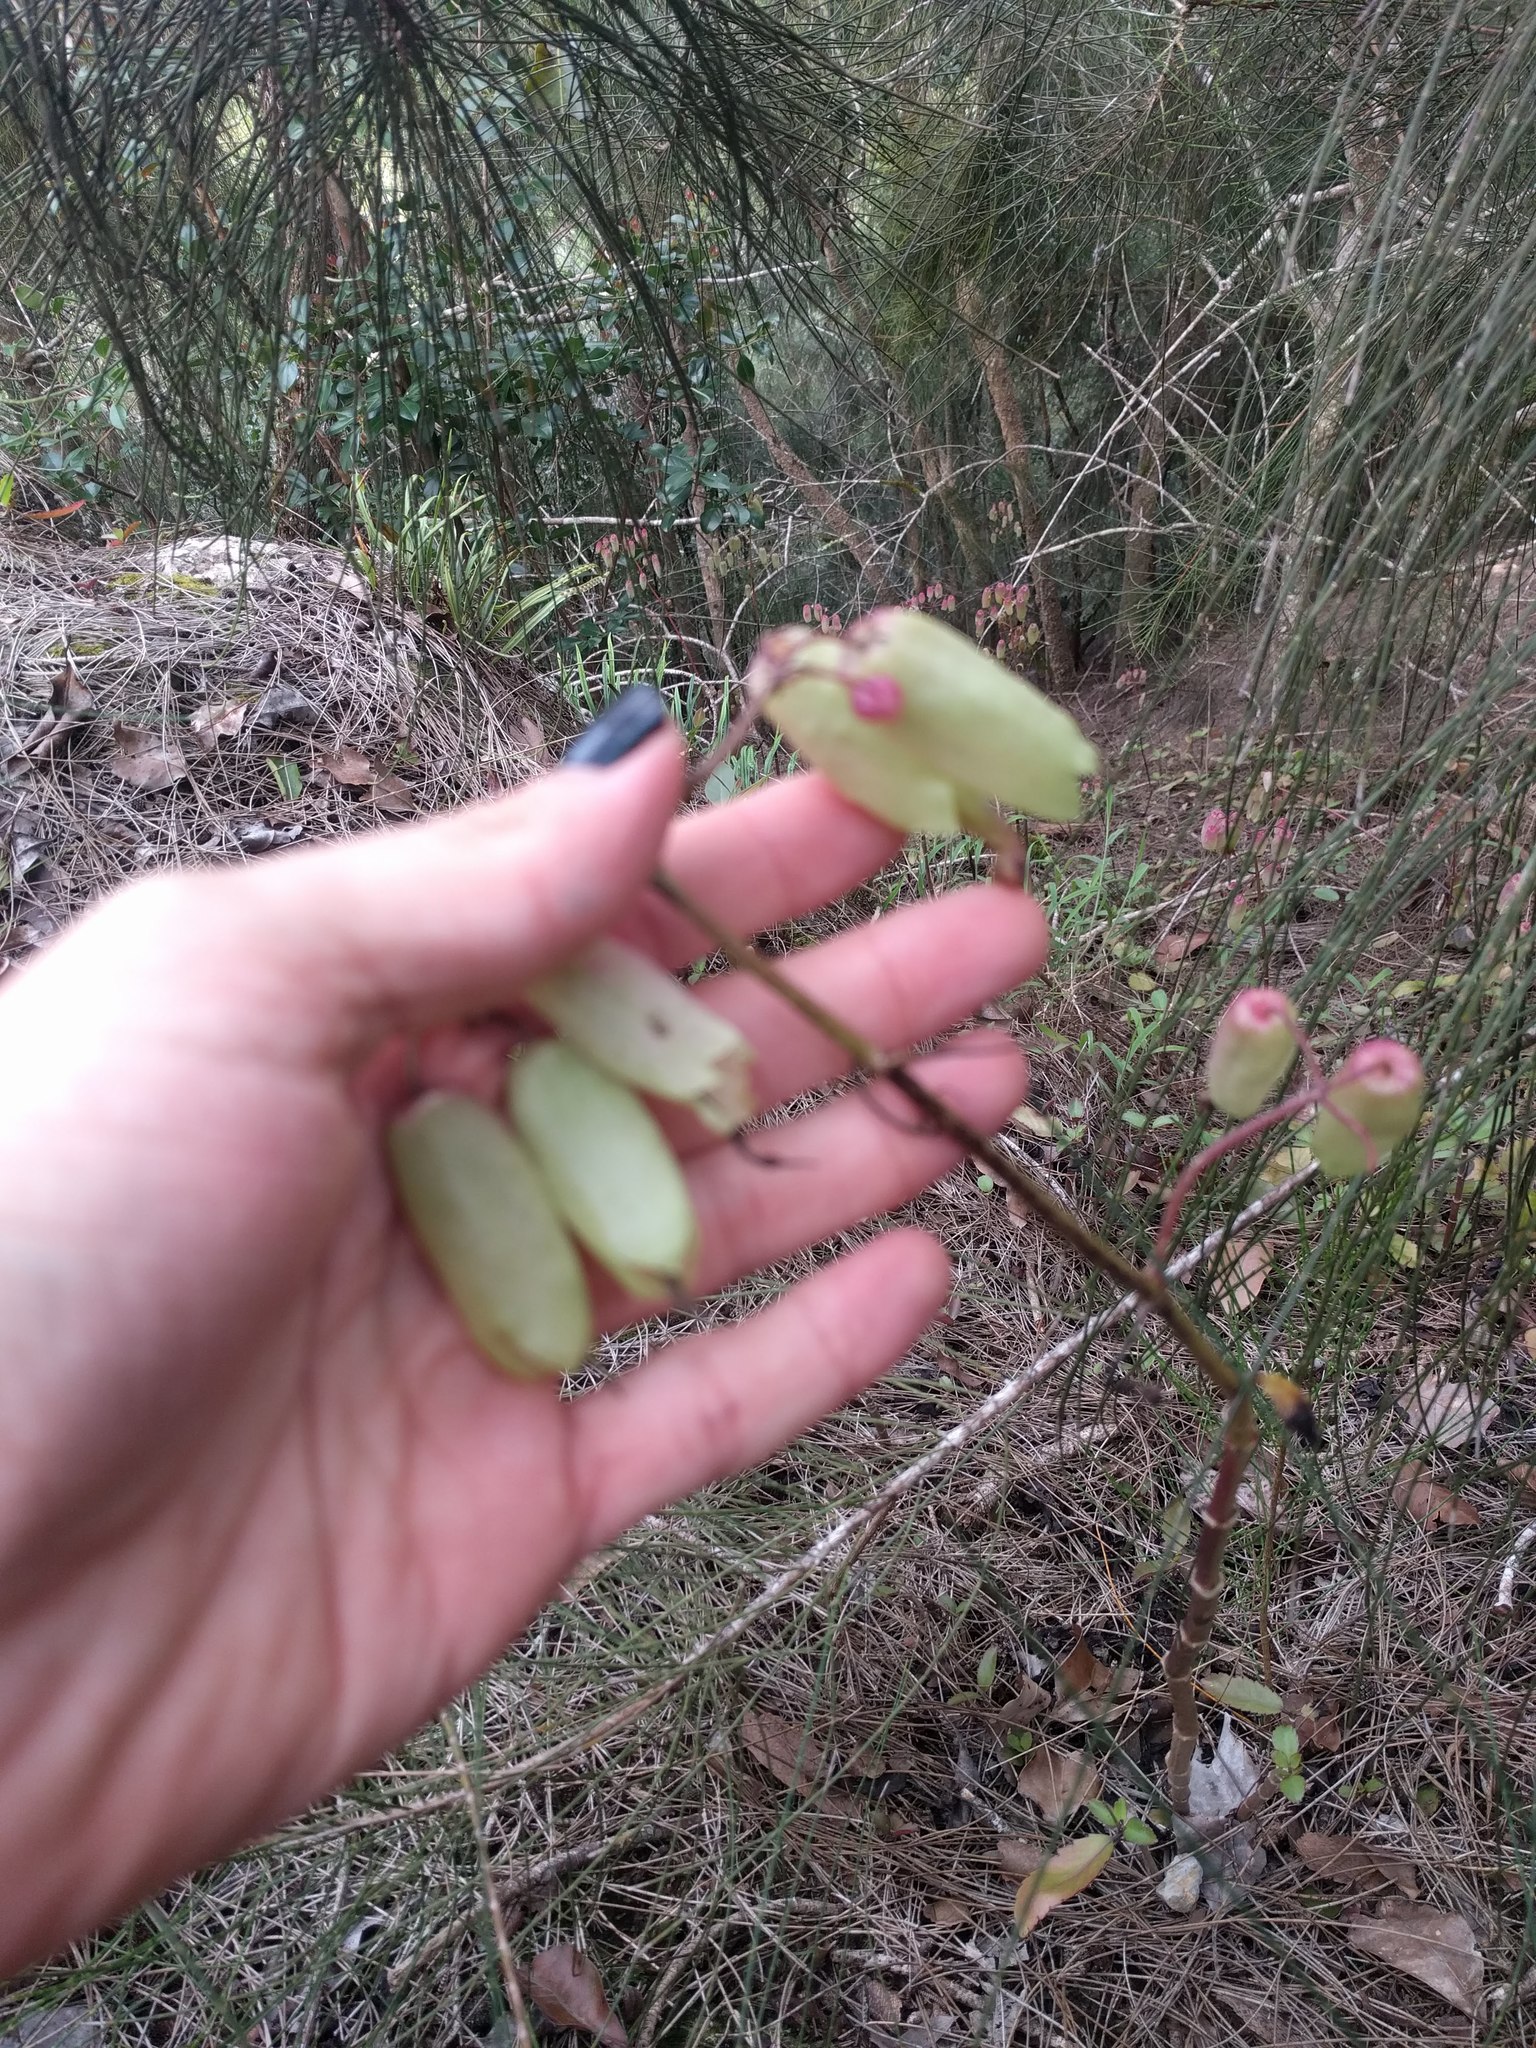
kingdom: Plantae
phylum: Tracheophyta
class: Magnoliopsida
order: Saxifragales
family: Crassulaceae
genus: Kalanchoe
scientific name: Kalanchoe pinnata
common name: Cathedral bells
